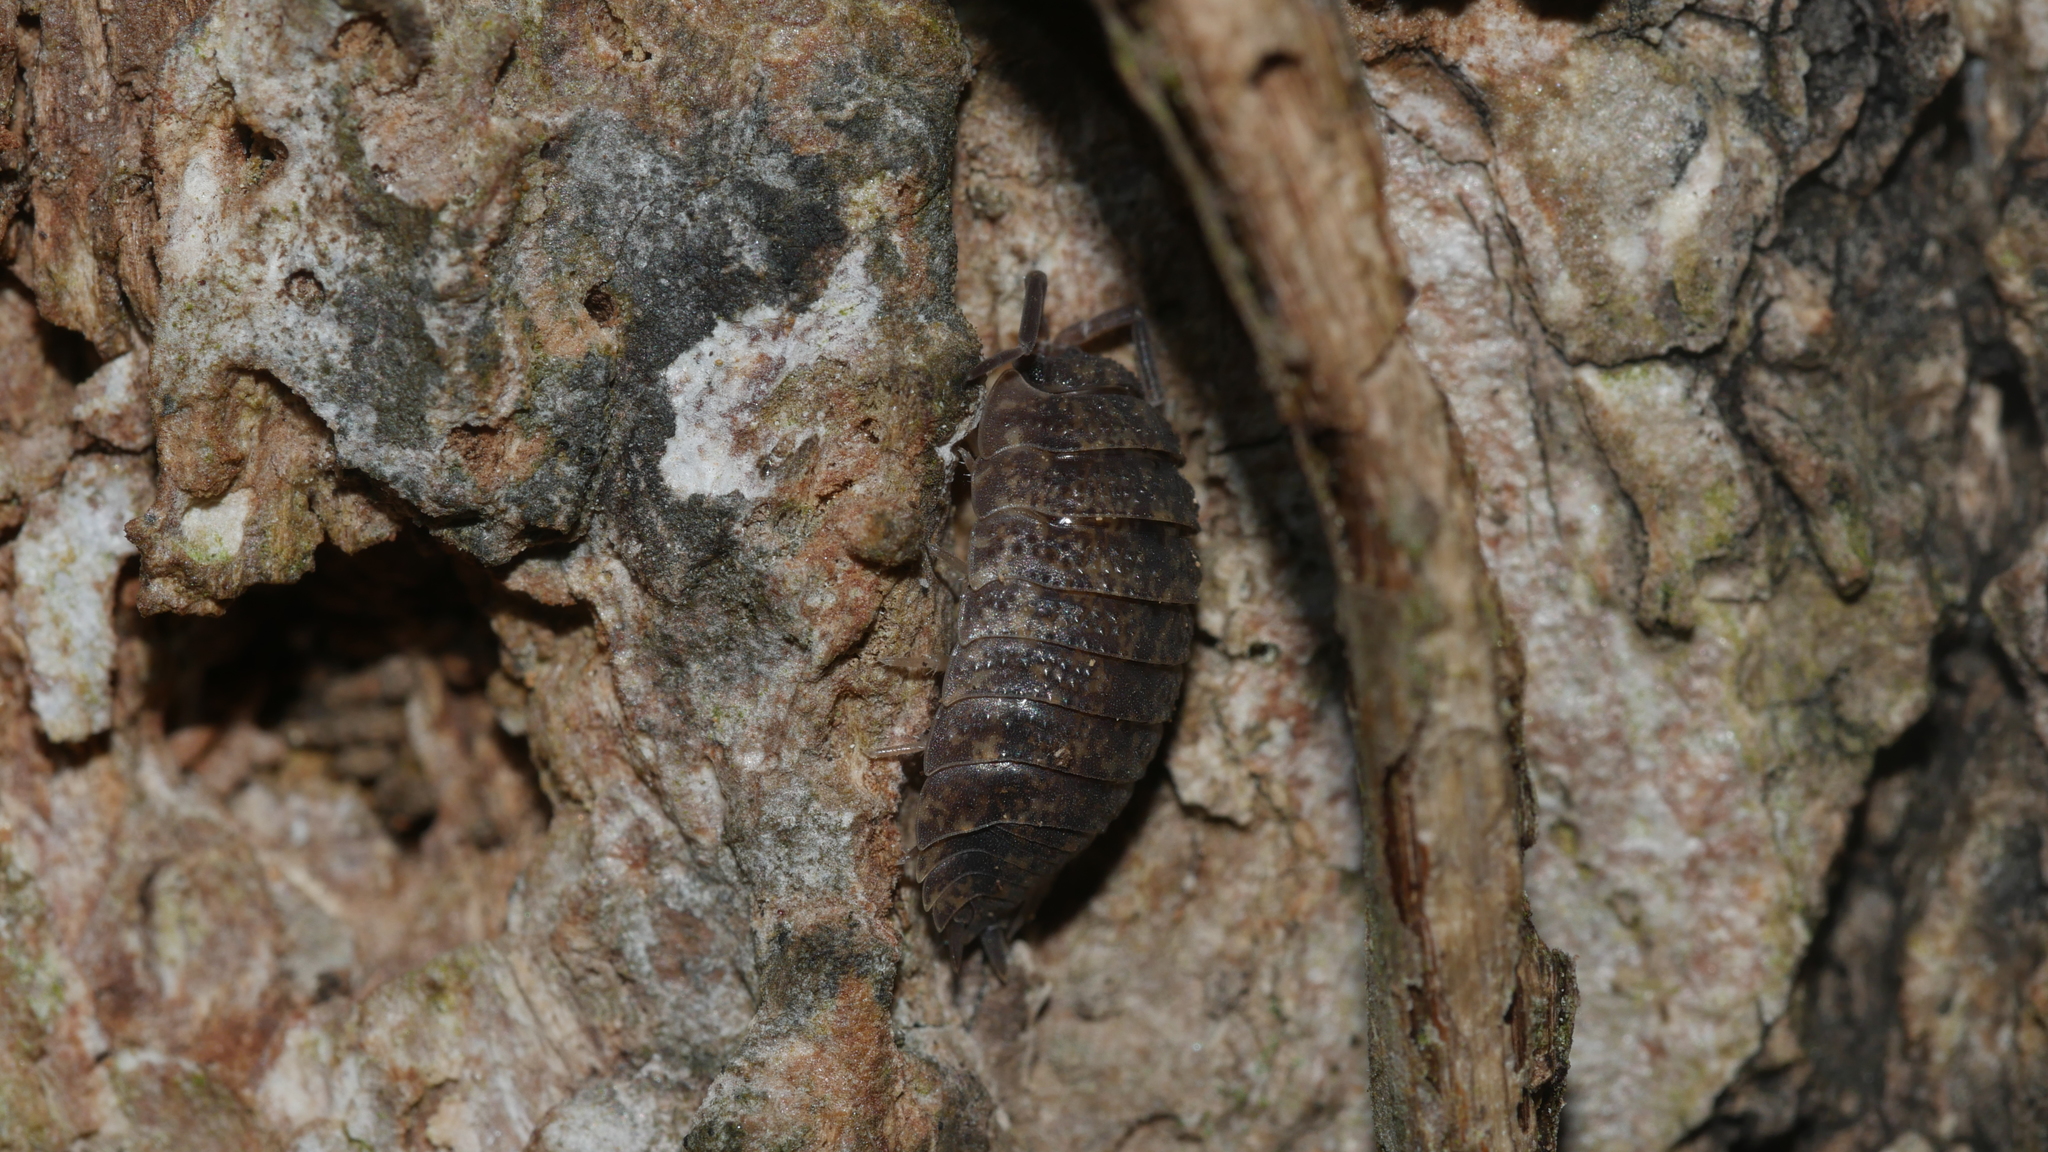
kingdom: Animalia
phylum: Arthropoda
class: Malacostraca
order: Isopoda
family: Porcellionidae
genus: Porcellio
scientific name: Porcellio scaber
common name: Common rough woodlouse
